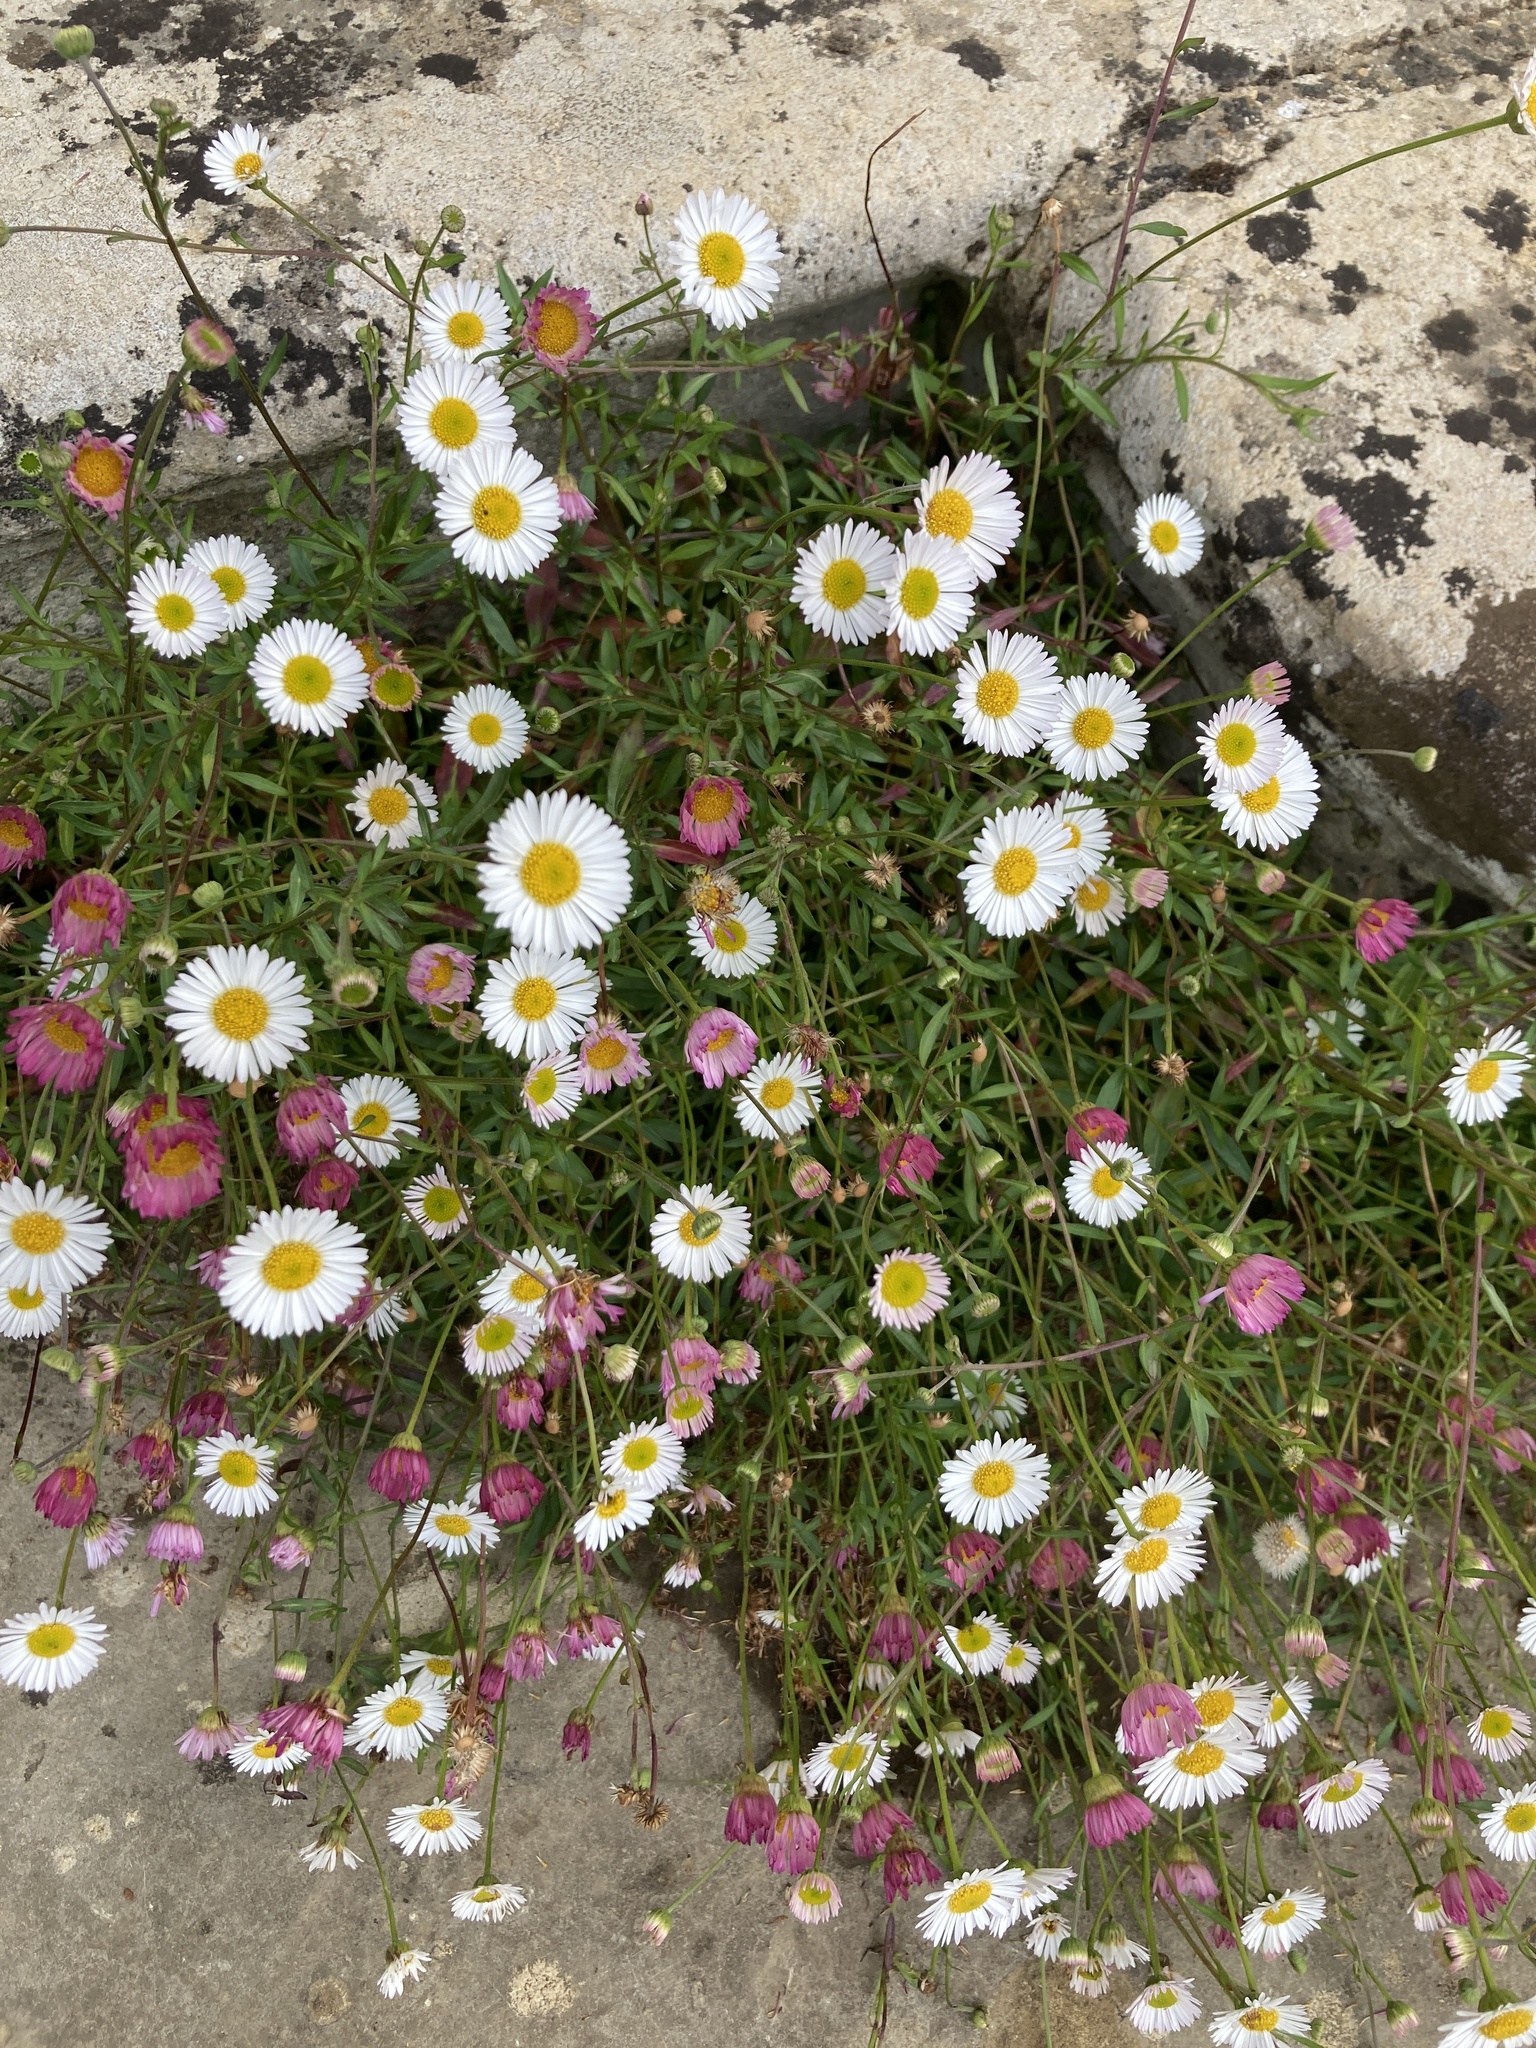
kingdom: Plantae
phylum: Tracheophyta
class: Magnoliopsida
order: Asterales
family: Asteraceae
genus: Erigeron
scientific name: Erigeron karvinskianus
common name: Mexican fleabane
